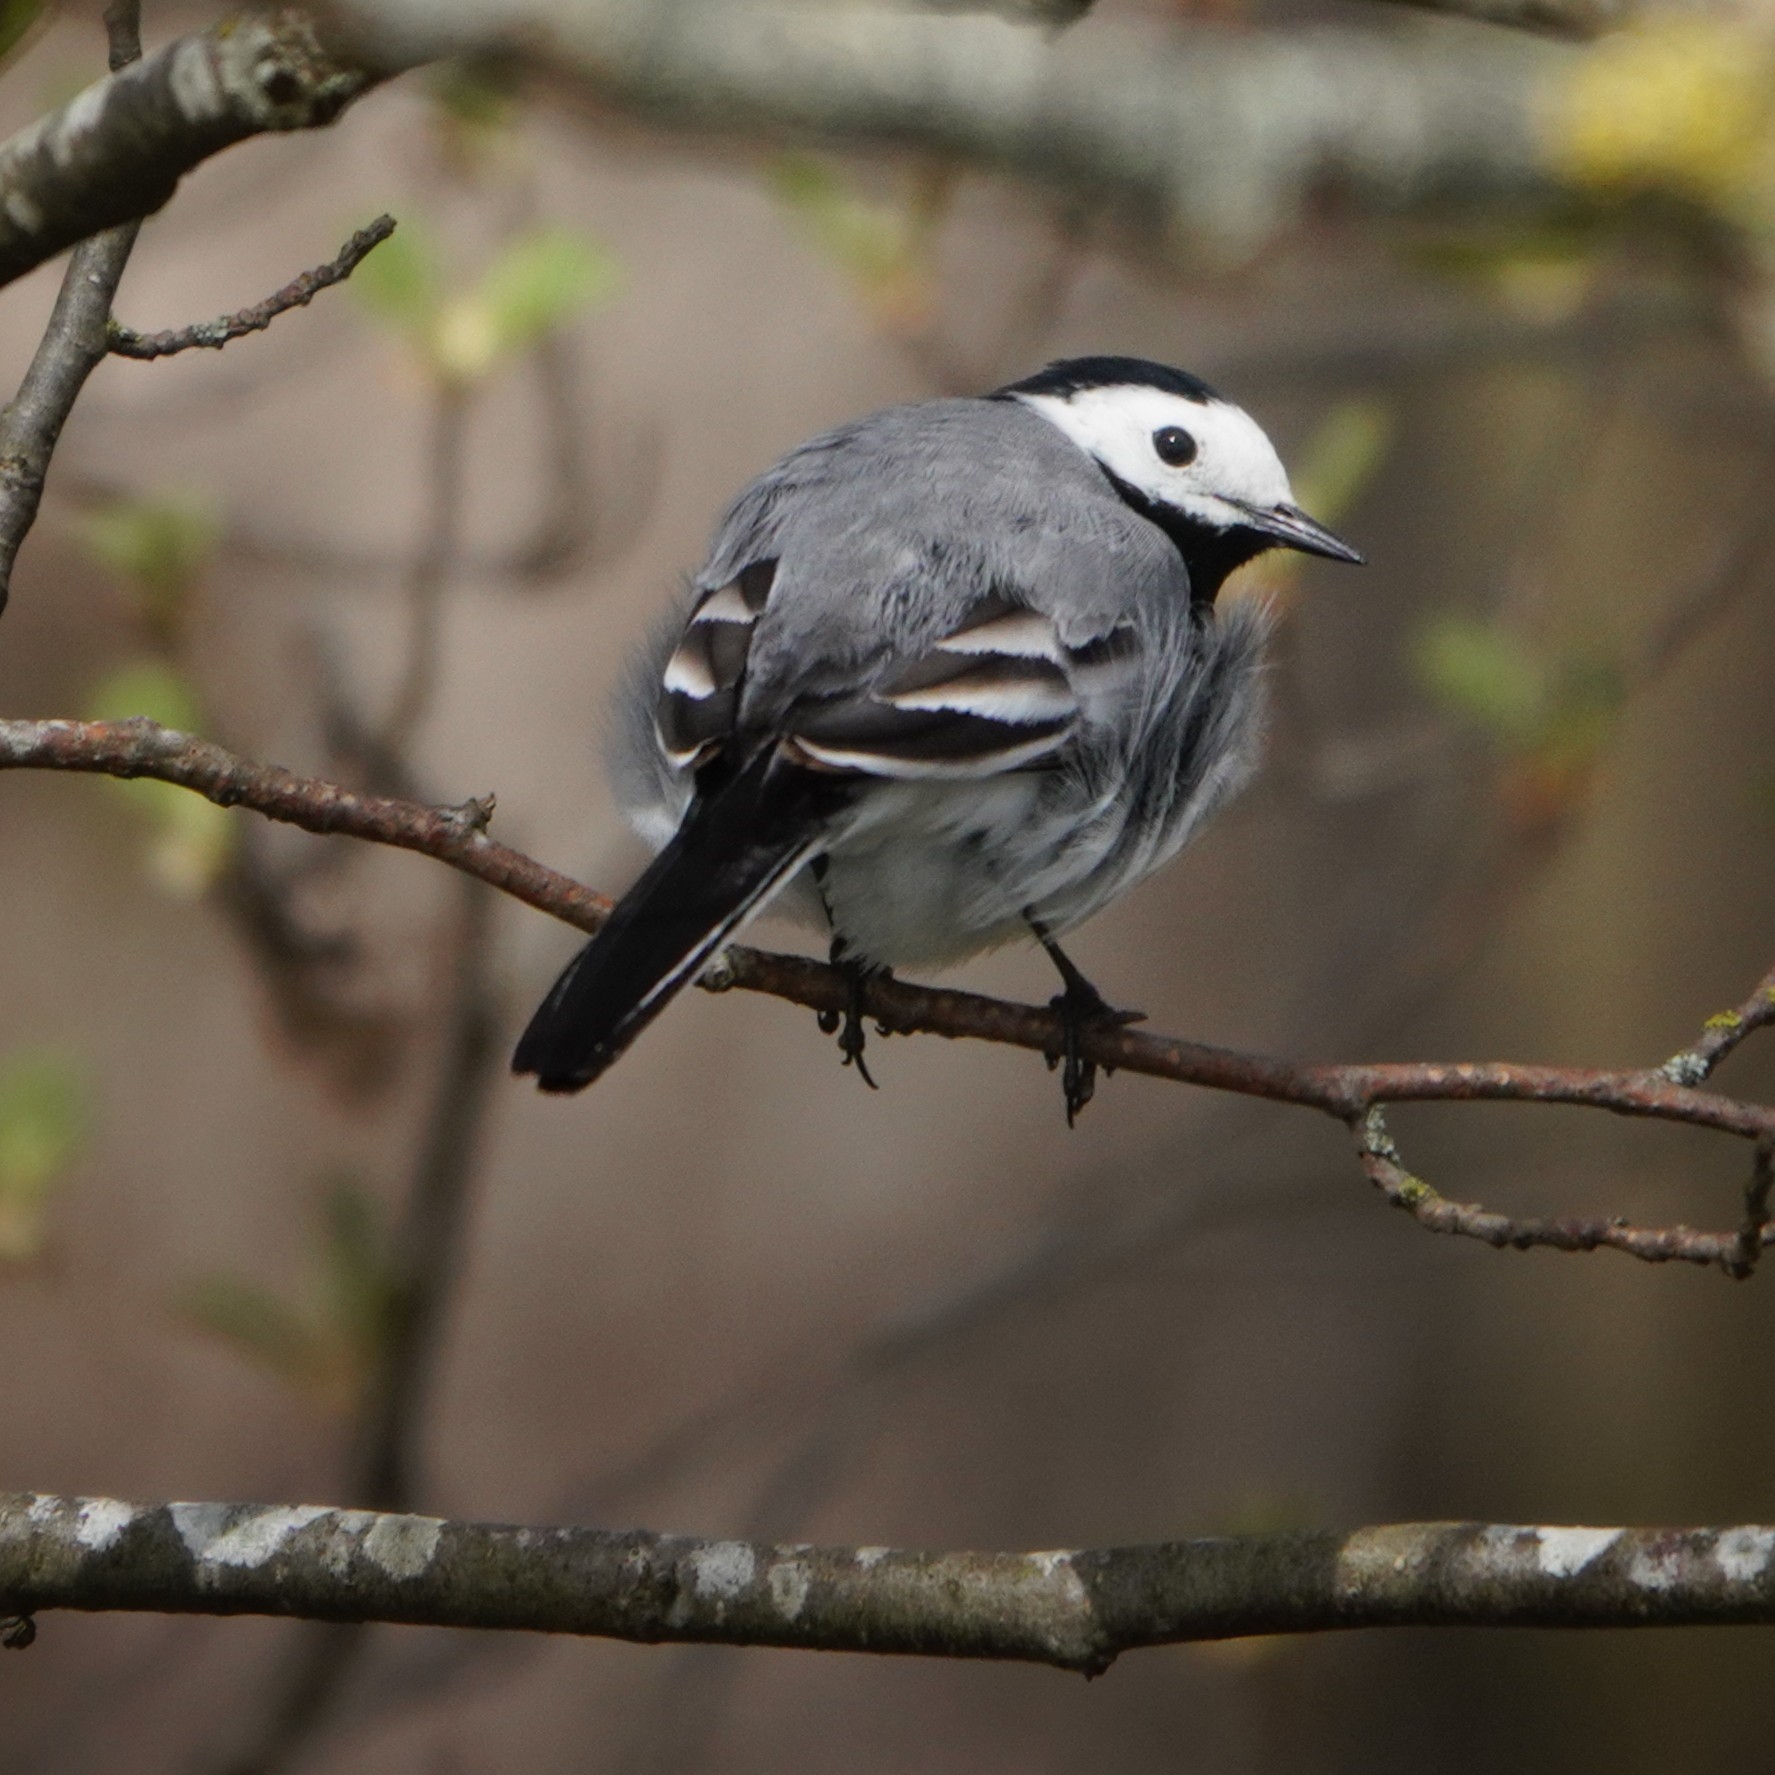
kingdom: Animalia
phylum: Chordata
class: Aves
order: Passeriformes
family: Motacillidae
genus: Motacilla
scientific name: Motacilla alba
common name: White wagtail
